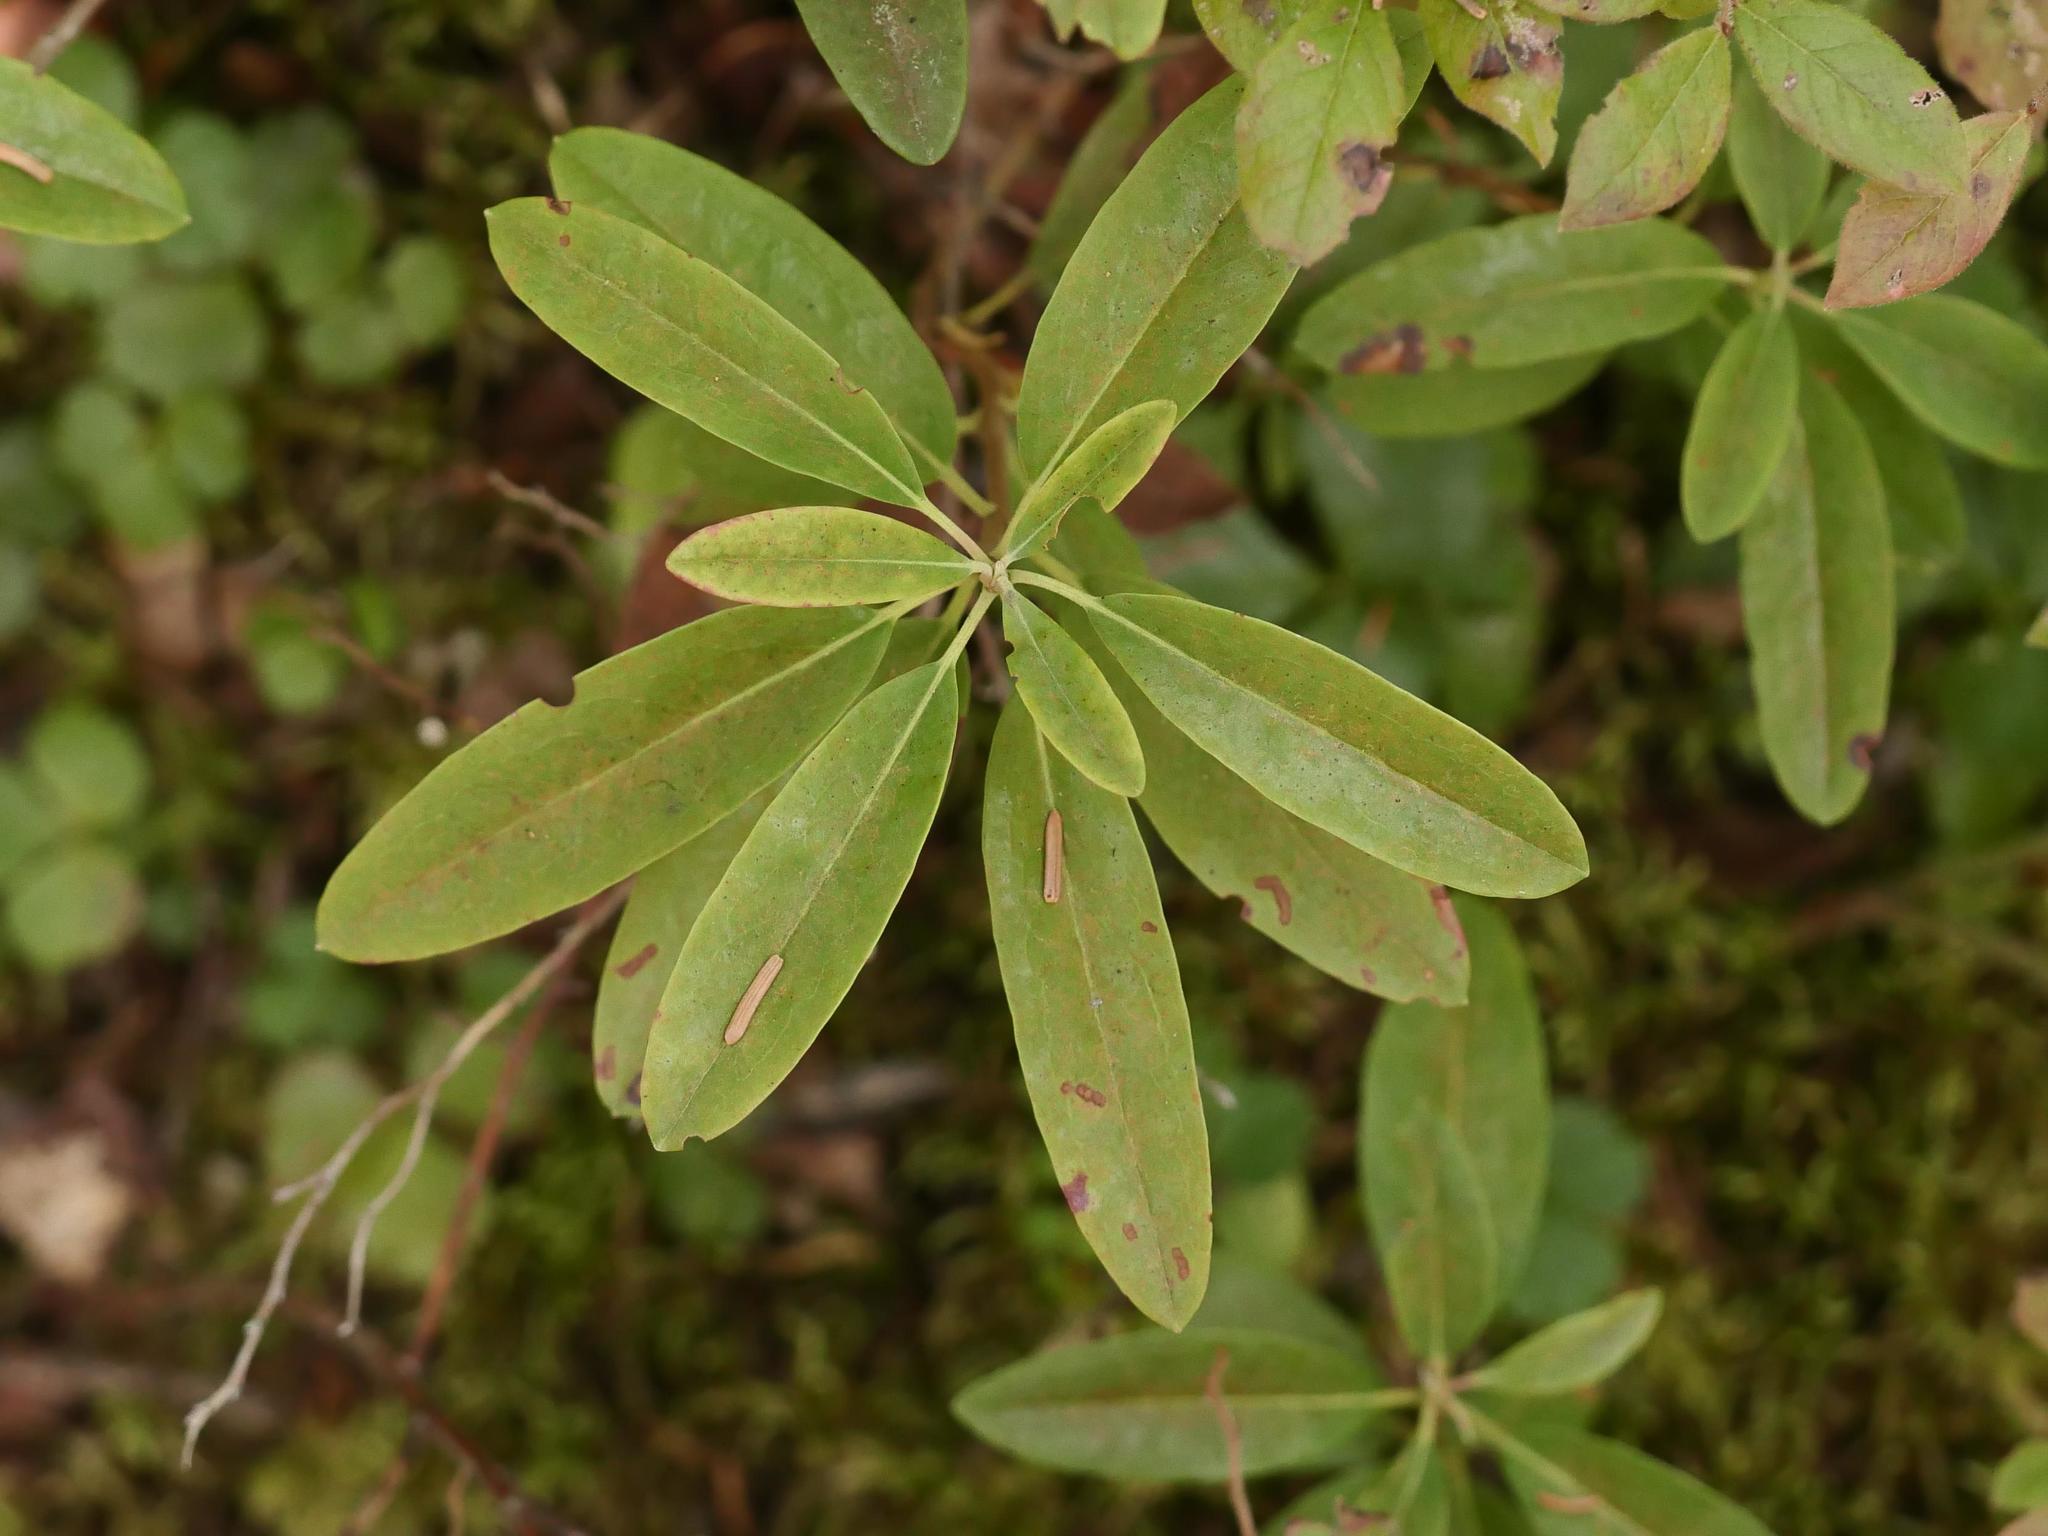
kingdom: Plantae
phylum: Tracheophyta
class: Magnoliopsida
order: Ericales
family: Ericaceae
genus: Kalmia
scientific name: Kalmia angustifolia
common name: Sheep-laurel
